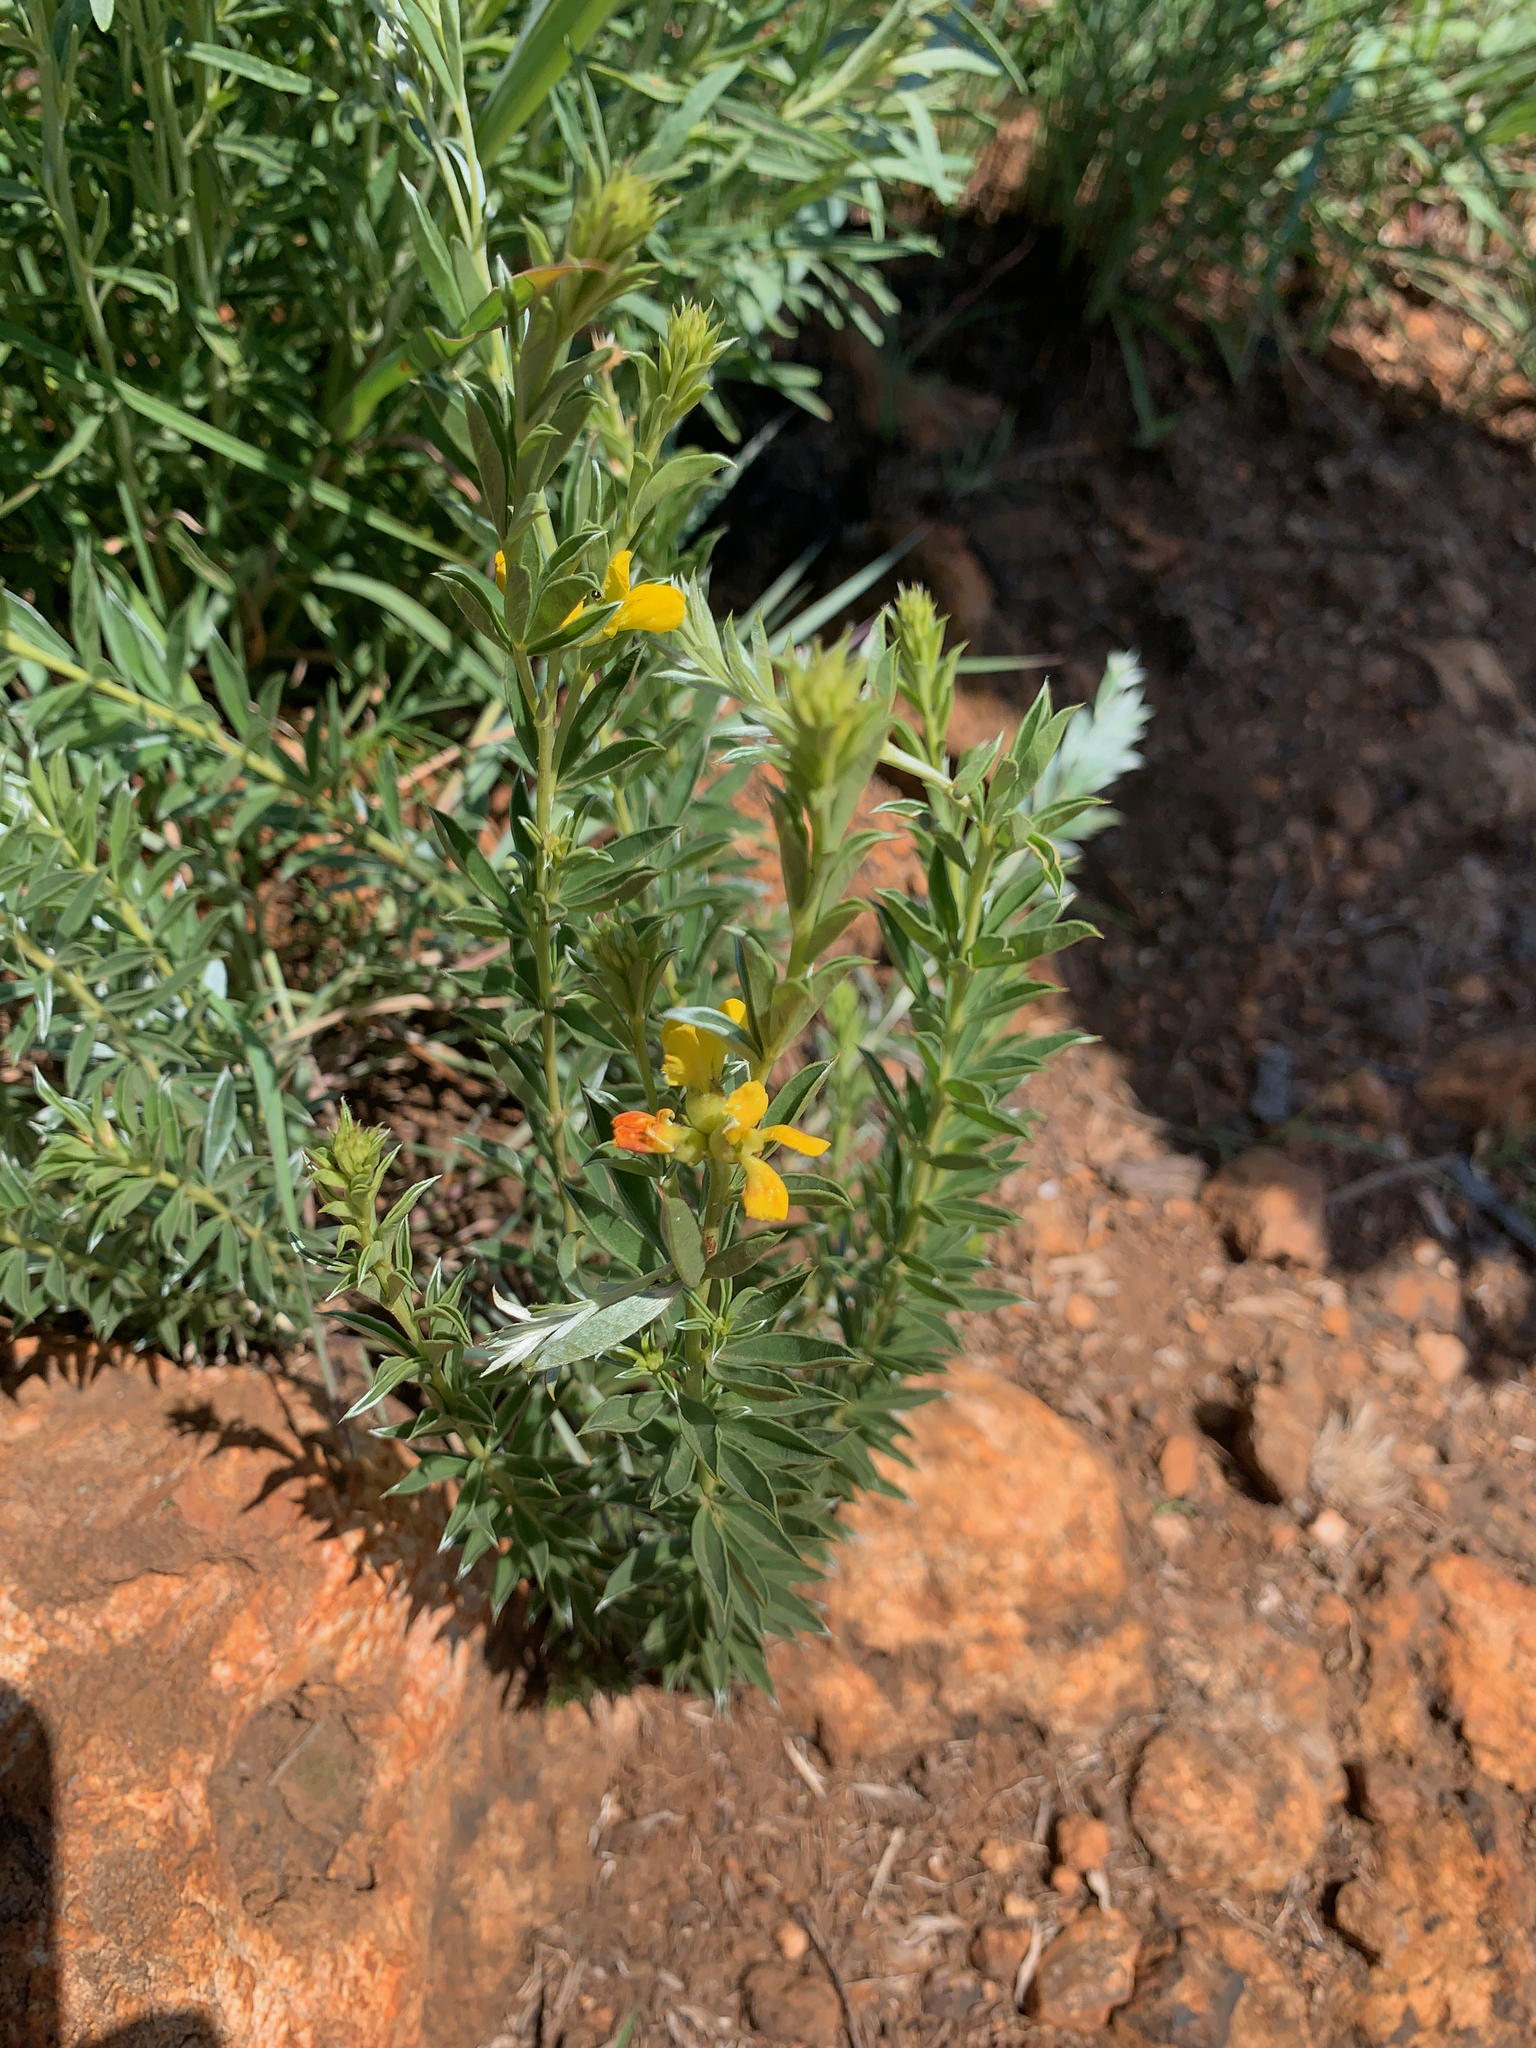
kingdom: Plantae
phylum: Tracheophyta
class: Magnoliopsida
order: Fabales
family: Fabaceae
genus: Pearsonia
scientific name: Pearsonia sessilifolia
